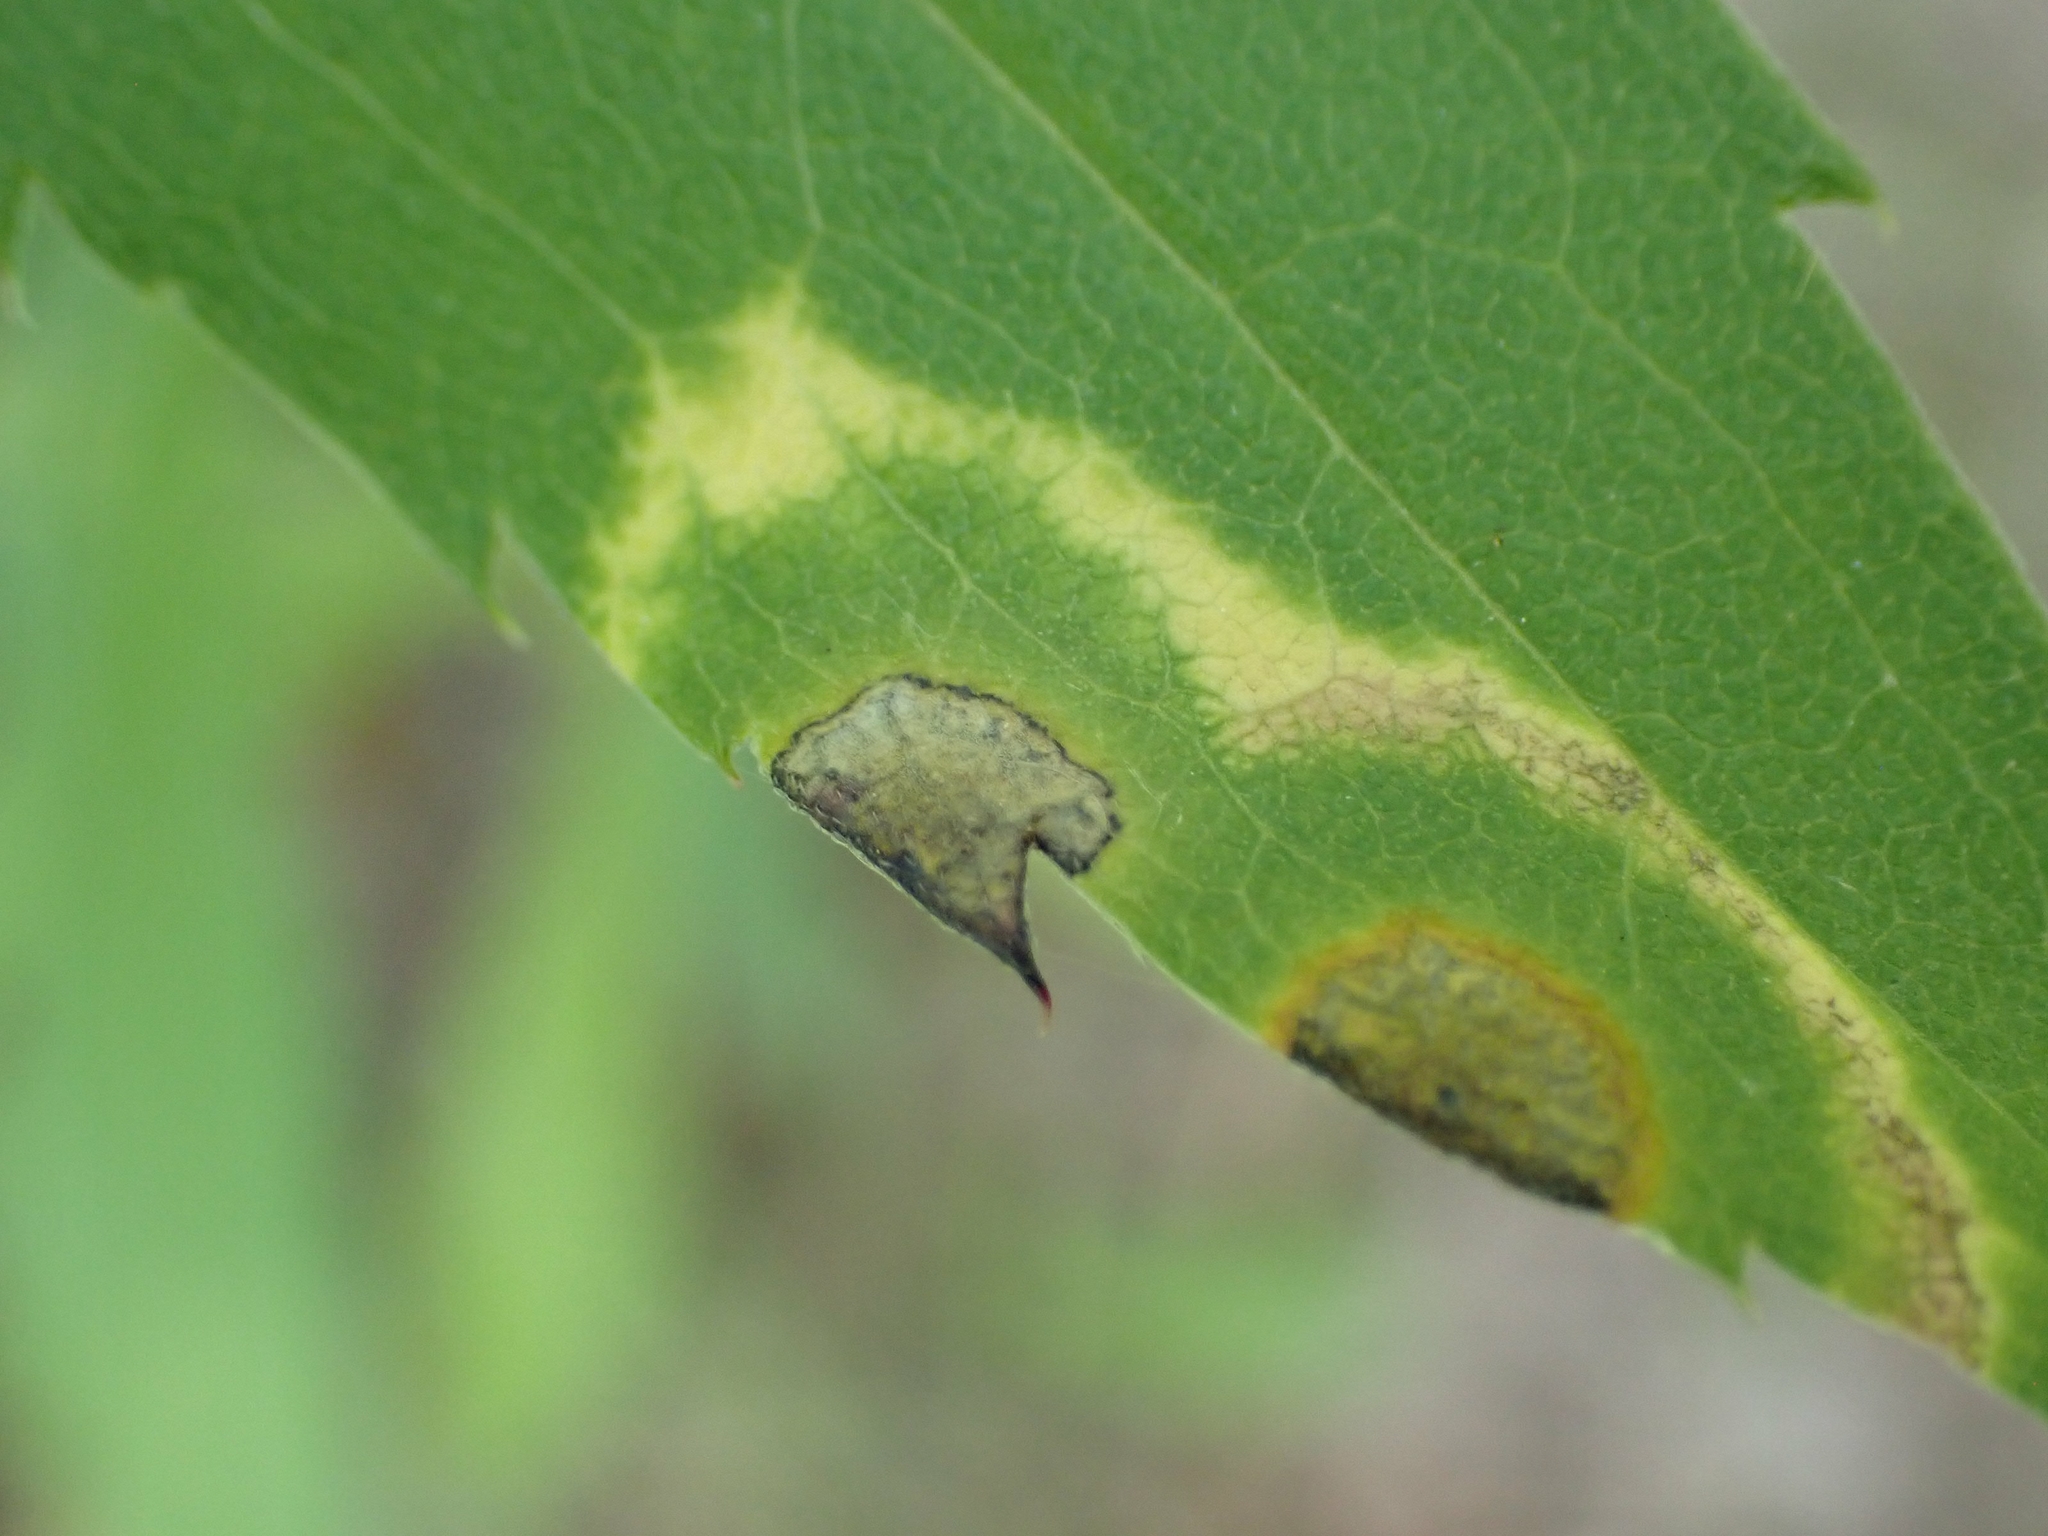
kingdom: Animalia
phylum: Arthropoda
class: Insecta
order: Diptera
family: Cecidomyiidae
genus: Asteromyia
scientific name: Asteromyia carbonifera
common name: Carbonifera goldenrod gall midge
